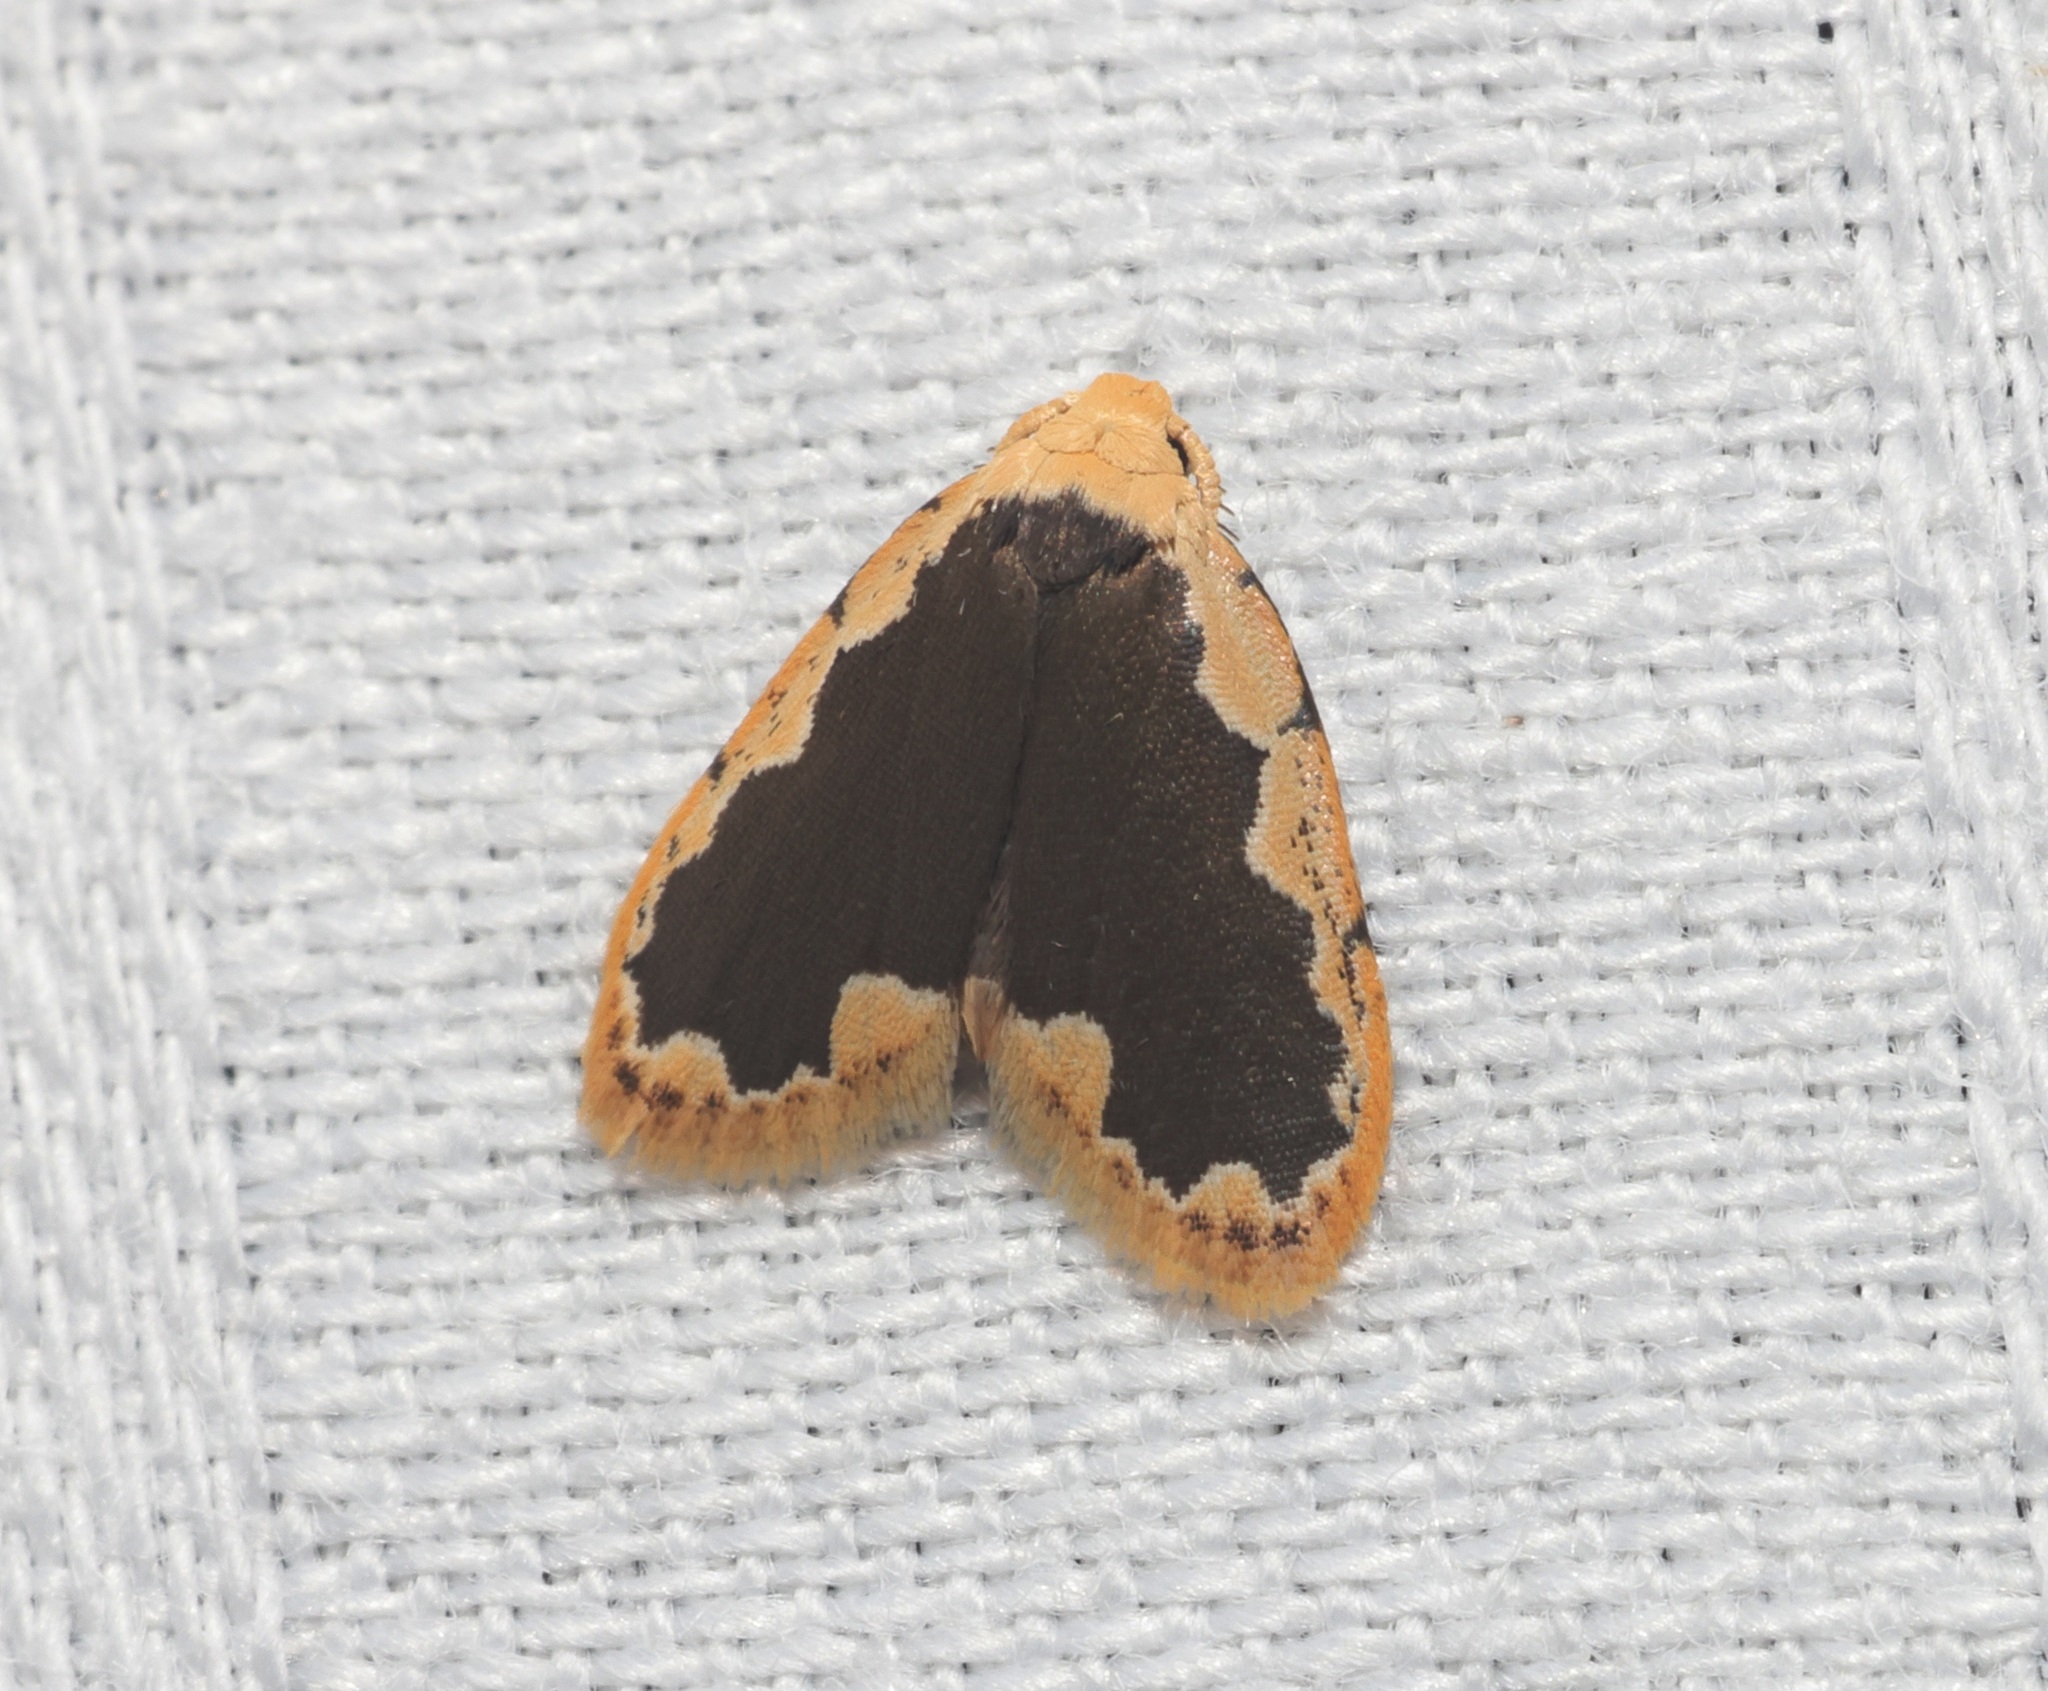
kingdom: Animalia
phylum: Arthropoda
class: Insecta
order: Lepidoptera
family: Erebidae
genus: Diduga
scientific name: Diduga flavicostata
